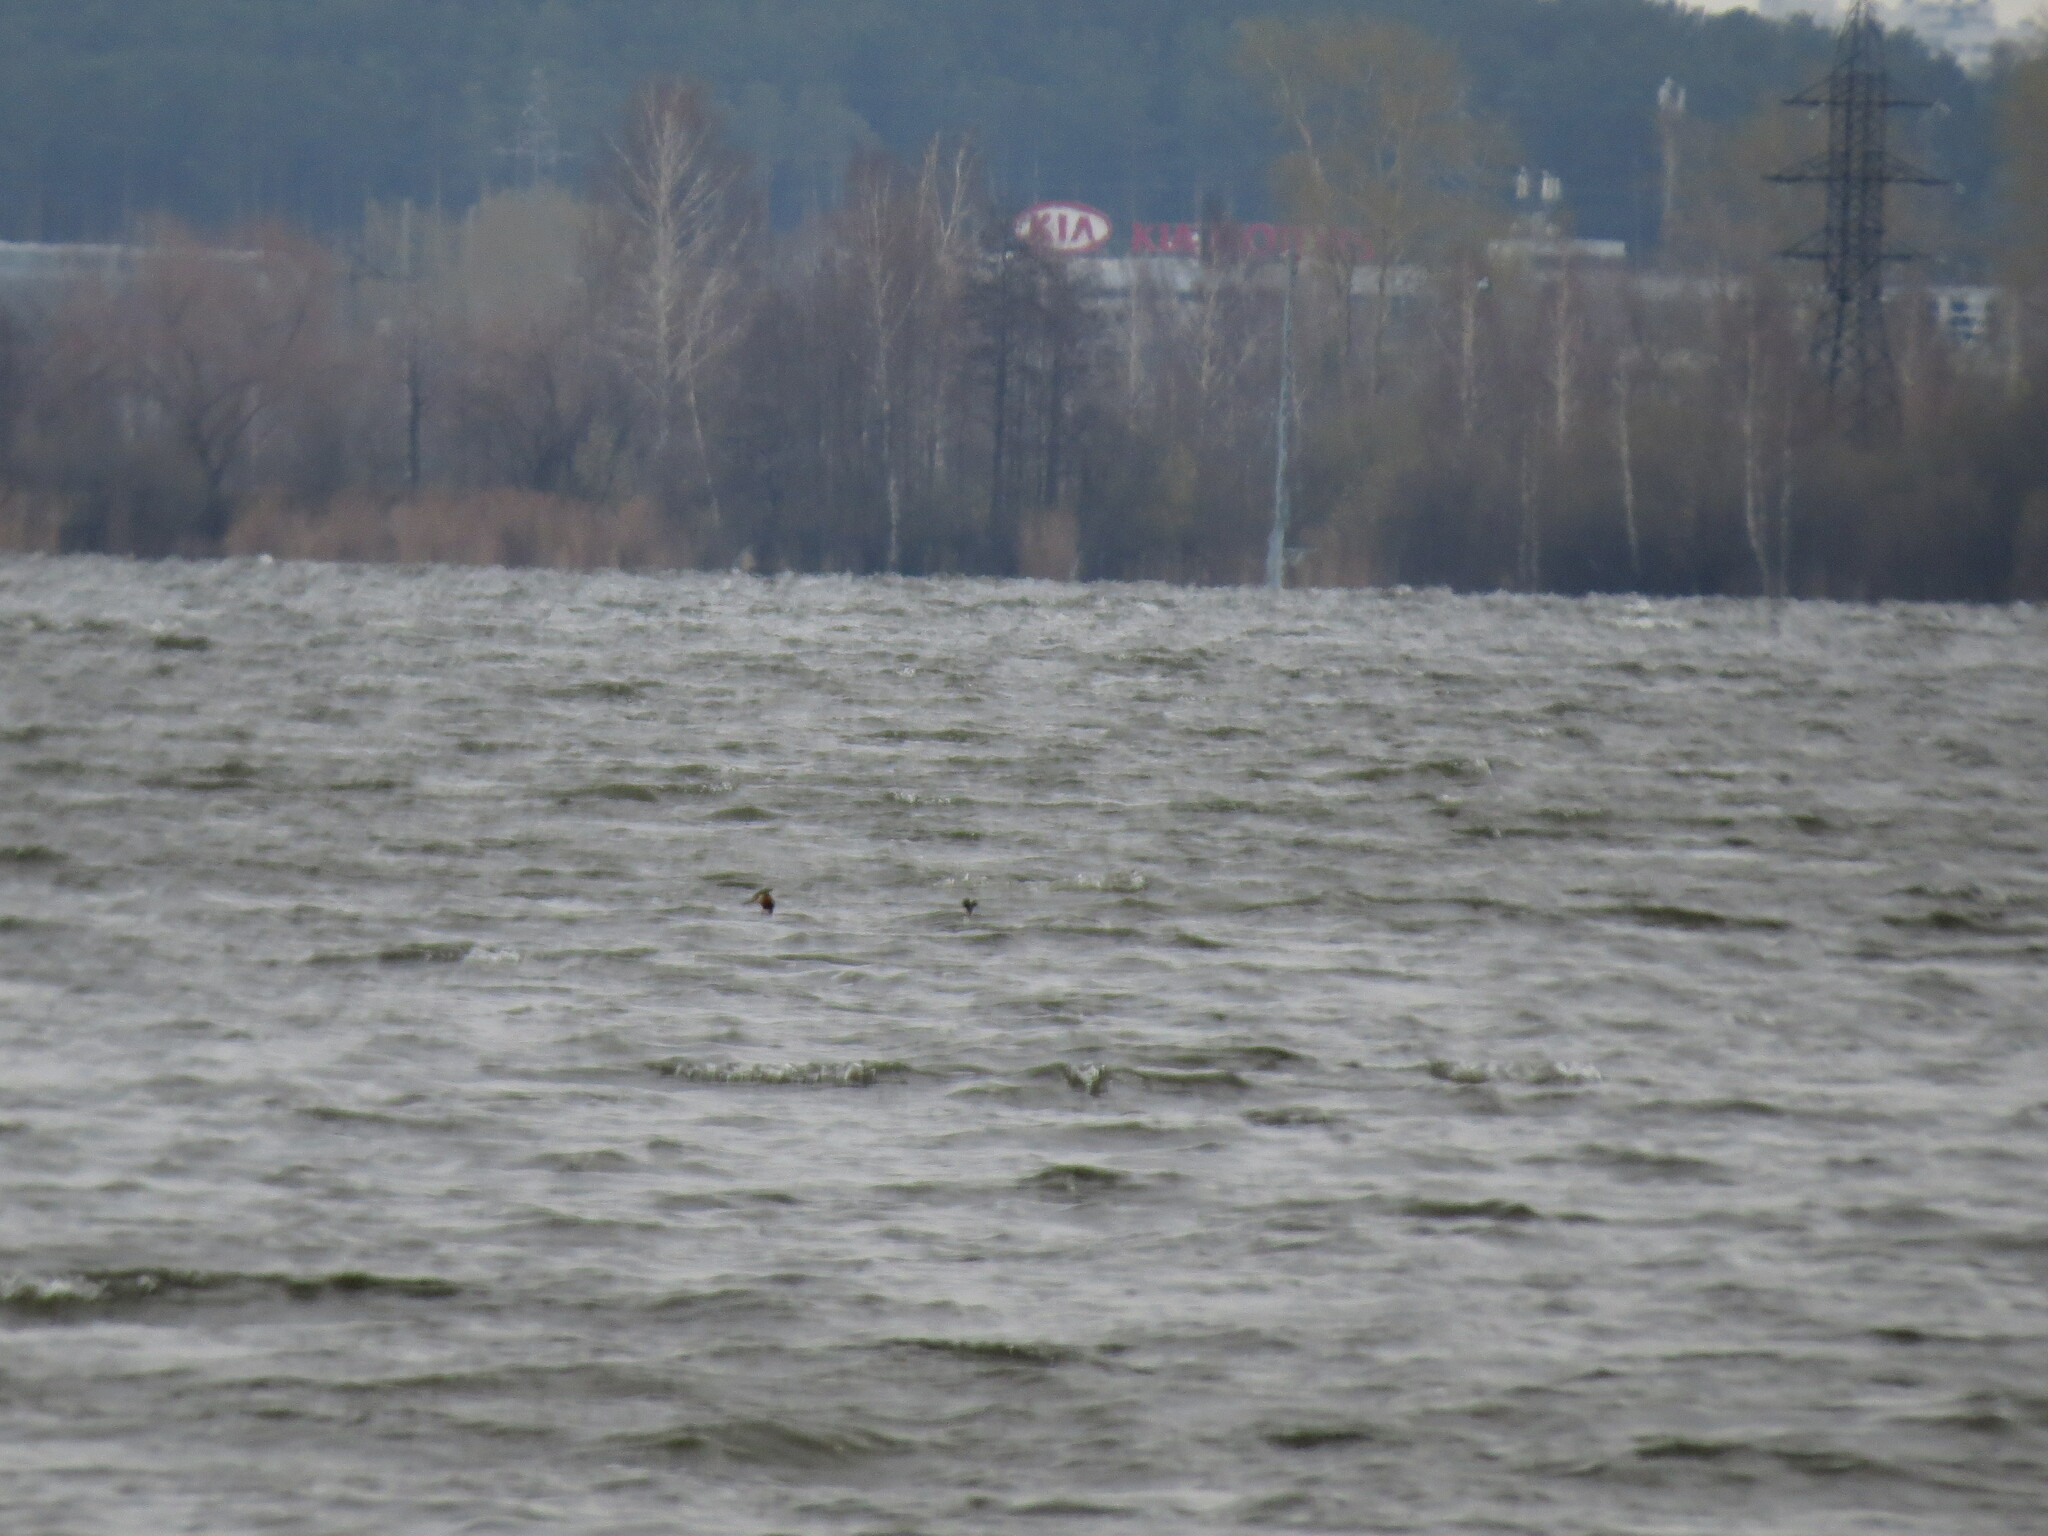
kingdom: Animalia
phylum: Chordata
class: Aves
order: Podicipediformes
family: Podicipedidae
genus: Podiceps
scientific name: Podiceps cristatus
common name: Great crested grebe
